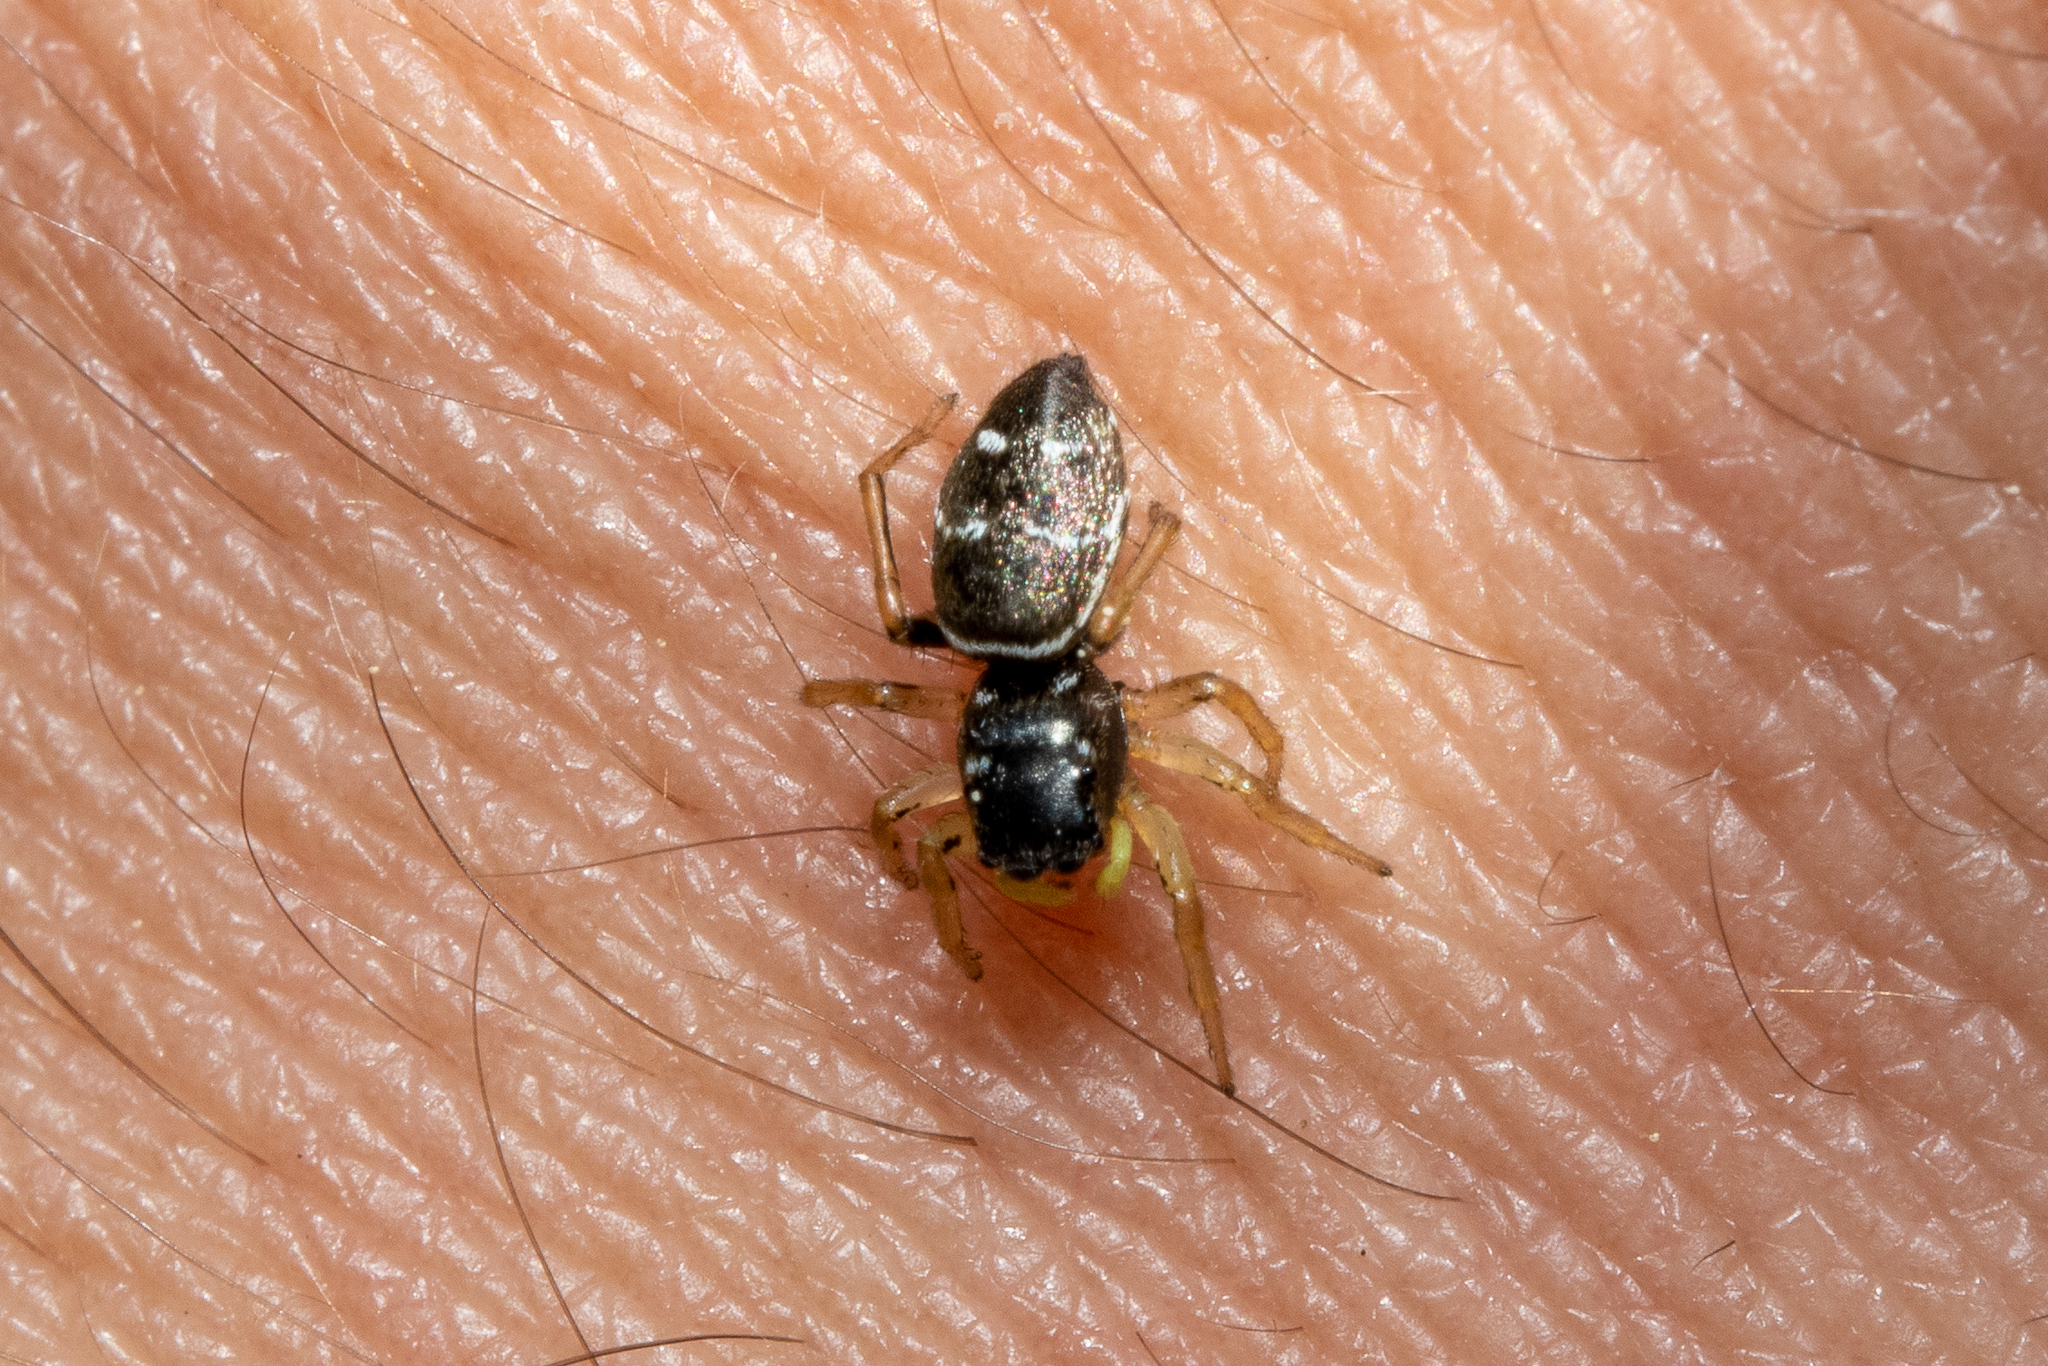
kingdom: Animalia
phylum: Arthropoda
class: Arachnida
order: Araneae
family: Salticidae
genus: Heliophanus
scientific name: Heliophanus cupreus
